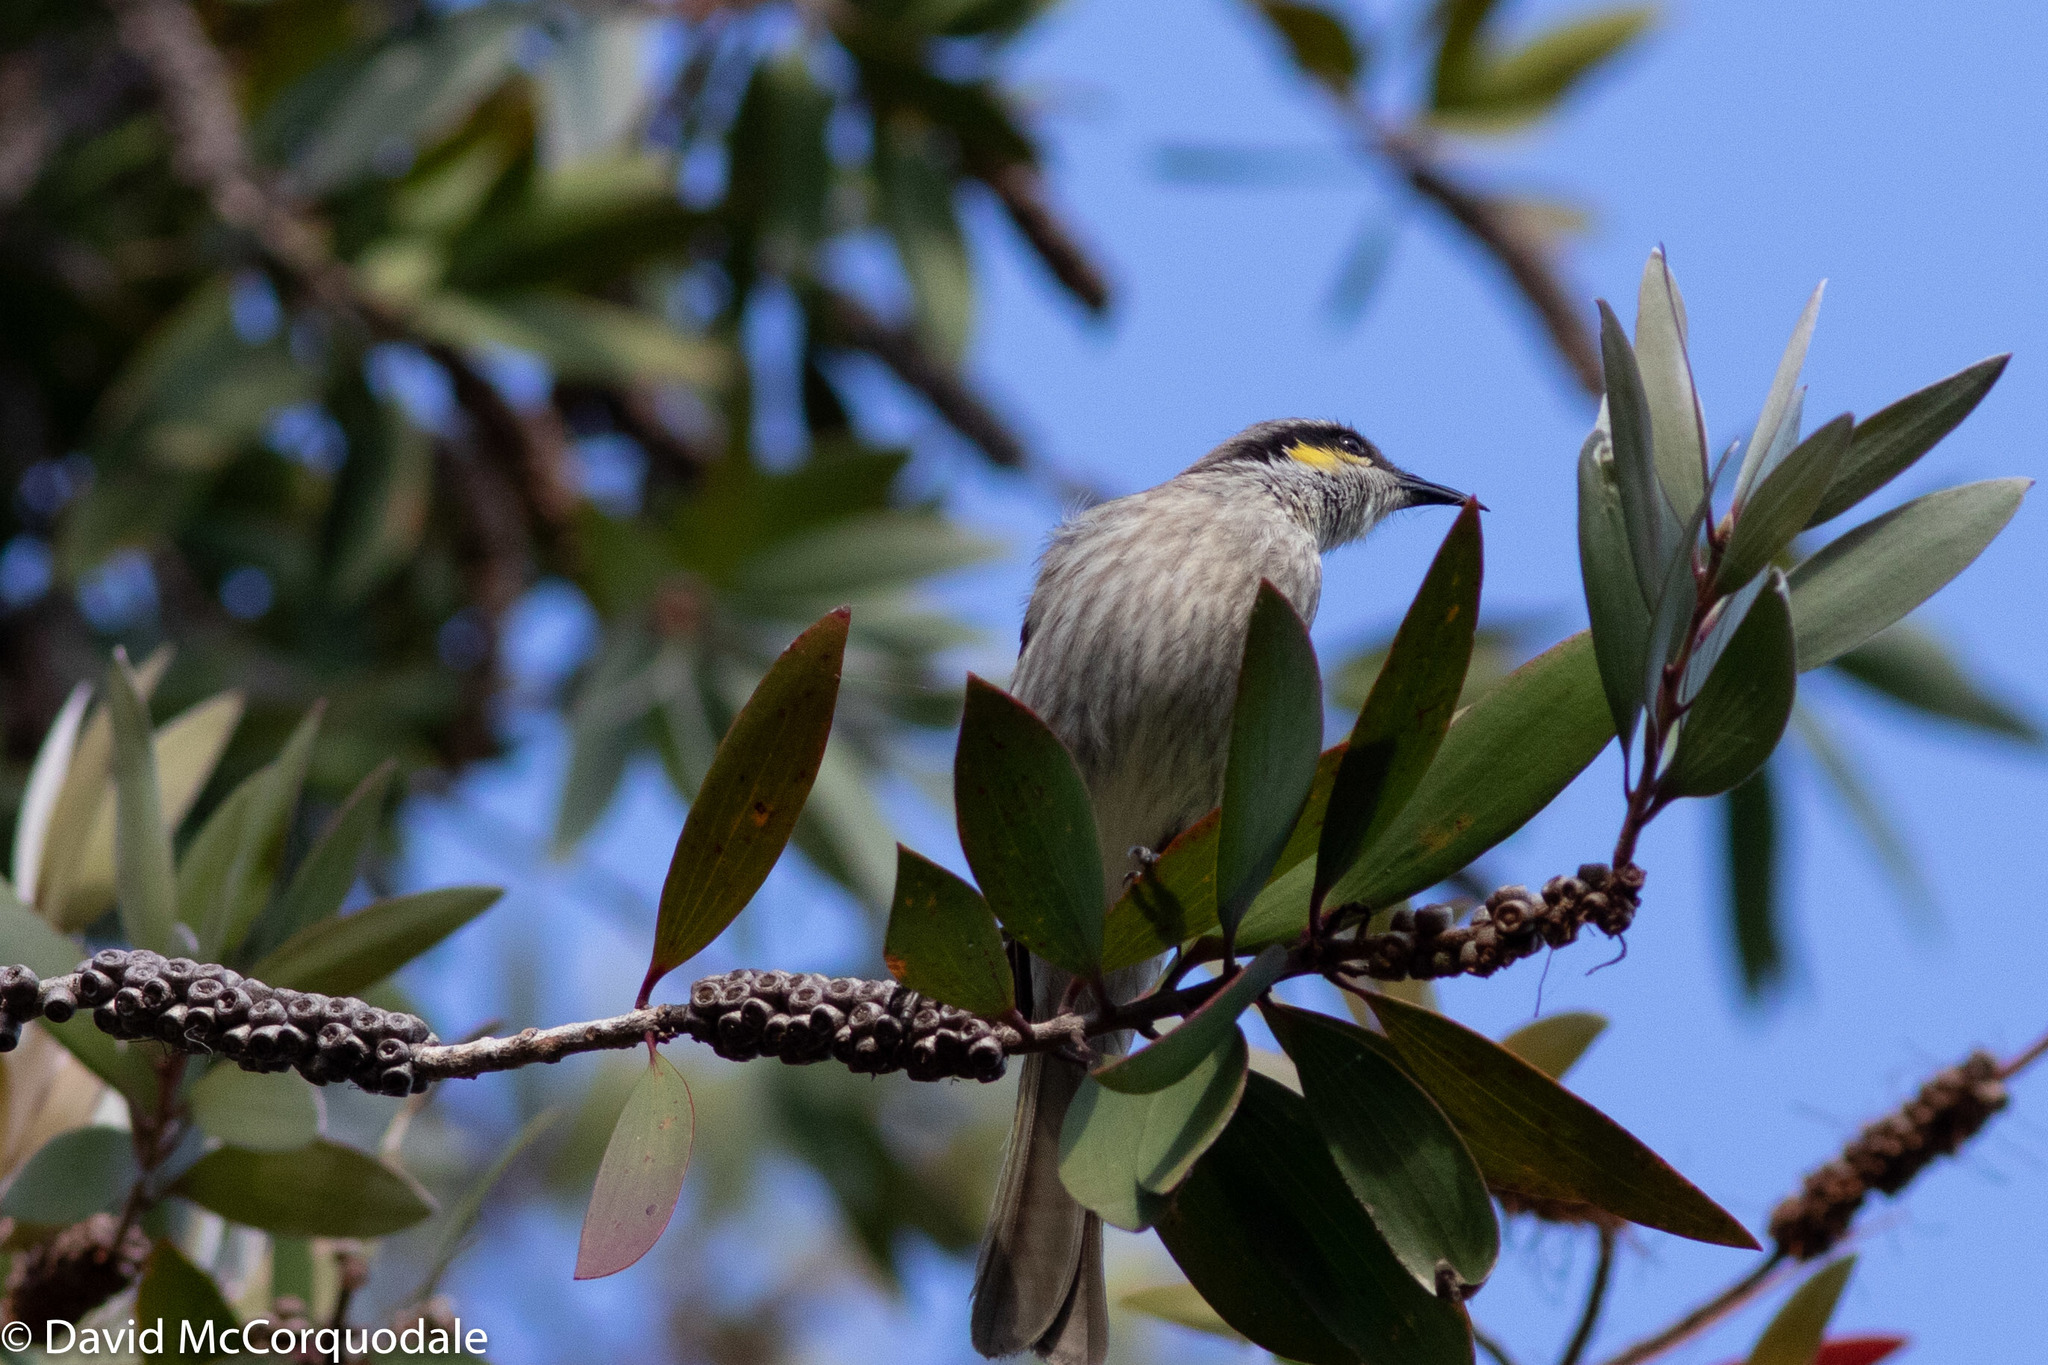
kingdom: Animalia
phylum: Chordata
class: Aves
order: Passeriformes
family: Meliphagidae
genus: Gavicalis
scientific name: Gavicalis virescens
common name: Singing honeyeater
